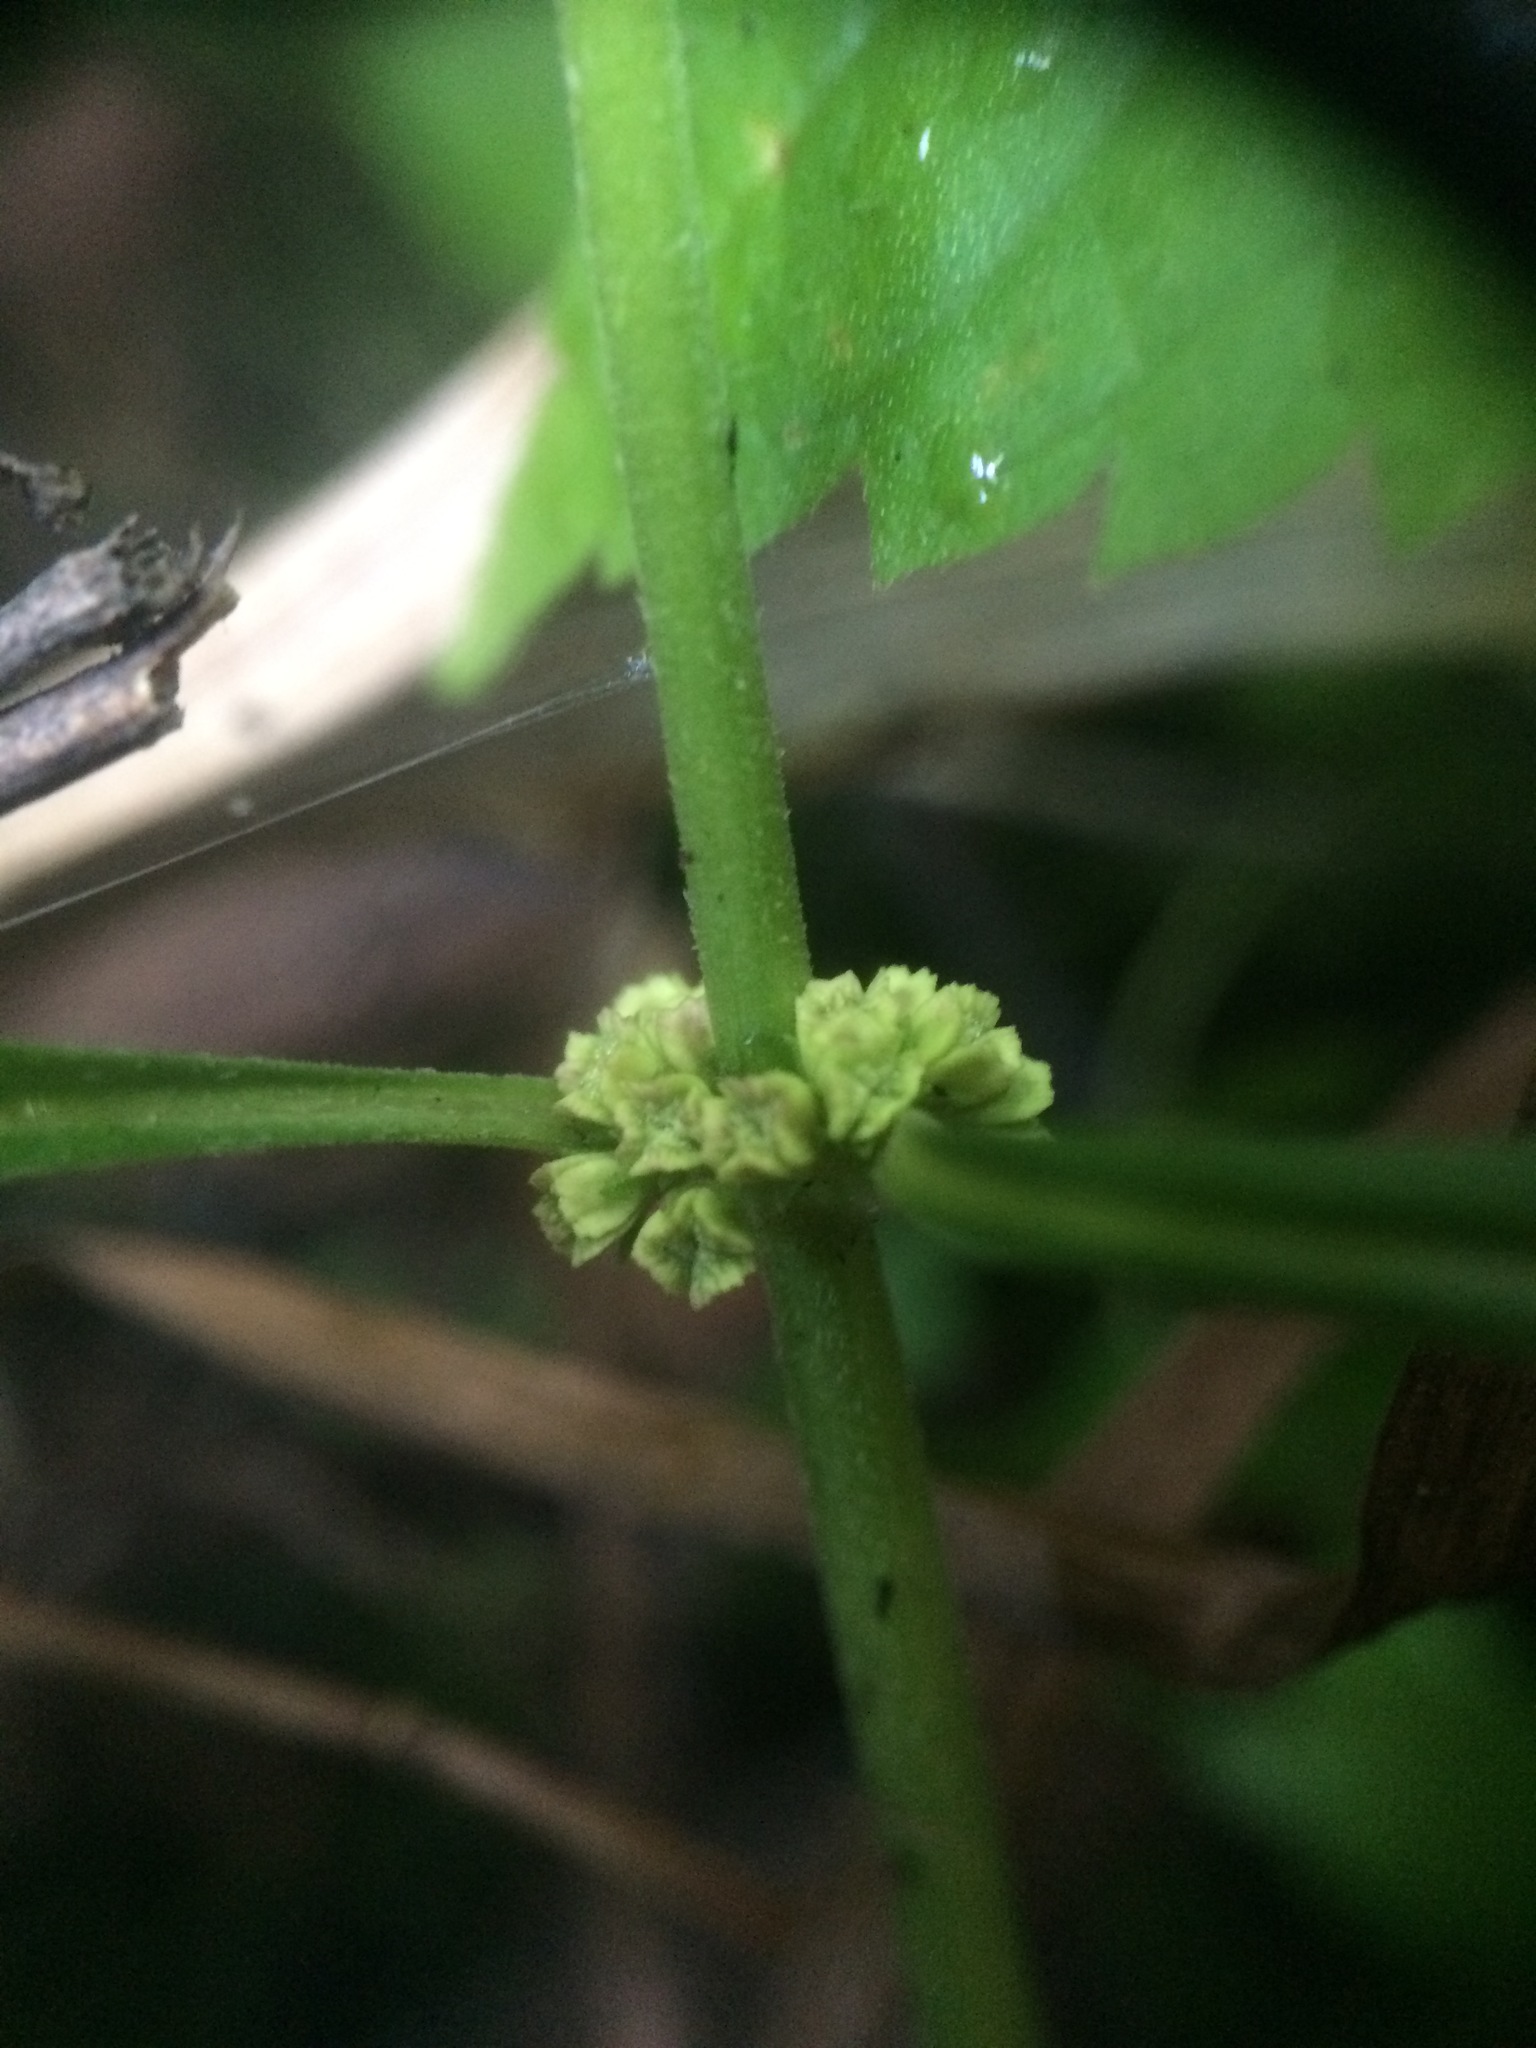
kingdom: Plantae
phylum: Tracheophyta
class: Magnoliopsida
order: Lamiales
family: Lamiaceae
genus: Lycopus
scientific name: Lycopus uniflorus
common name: Northern bugleweed
